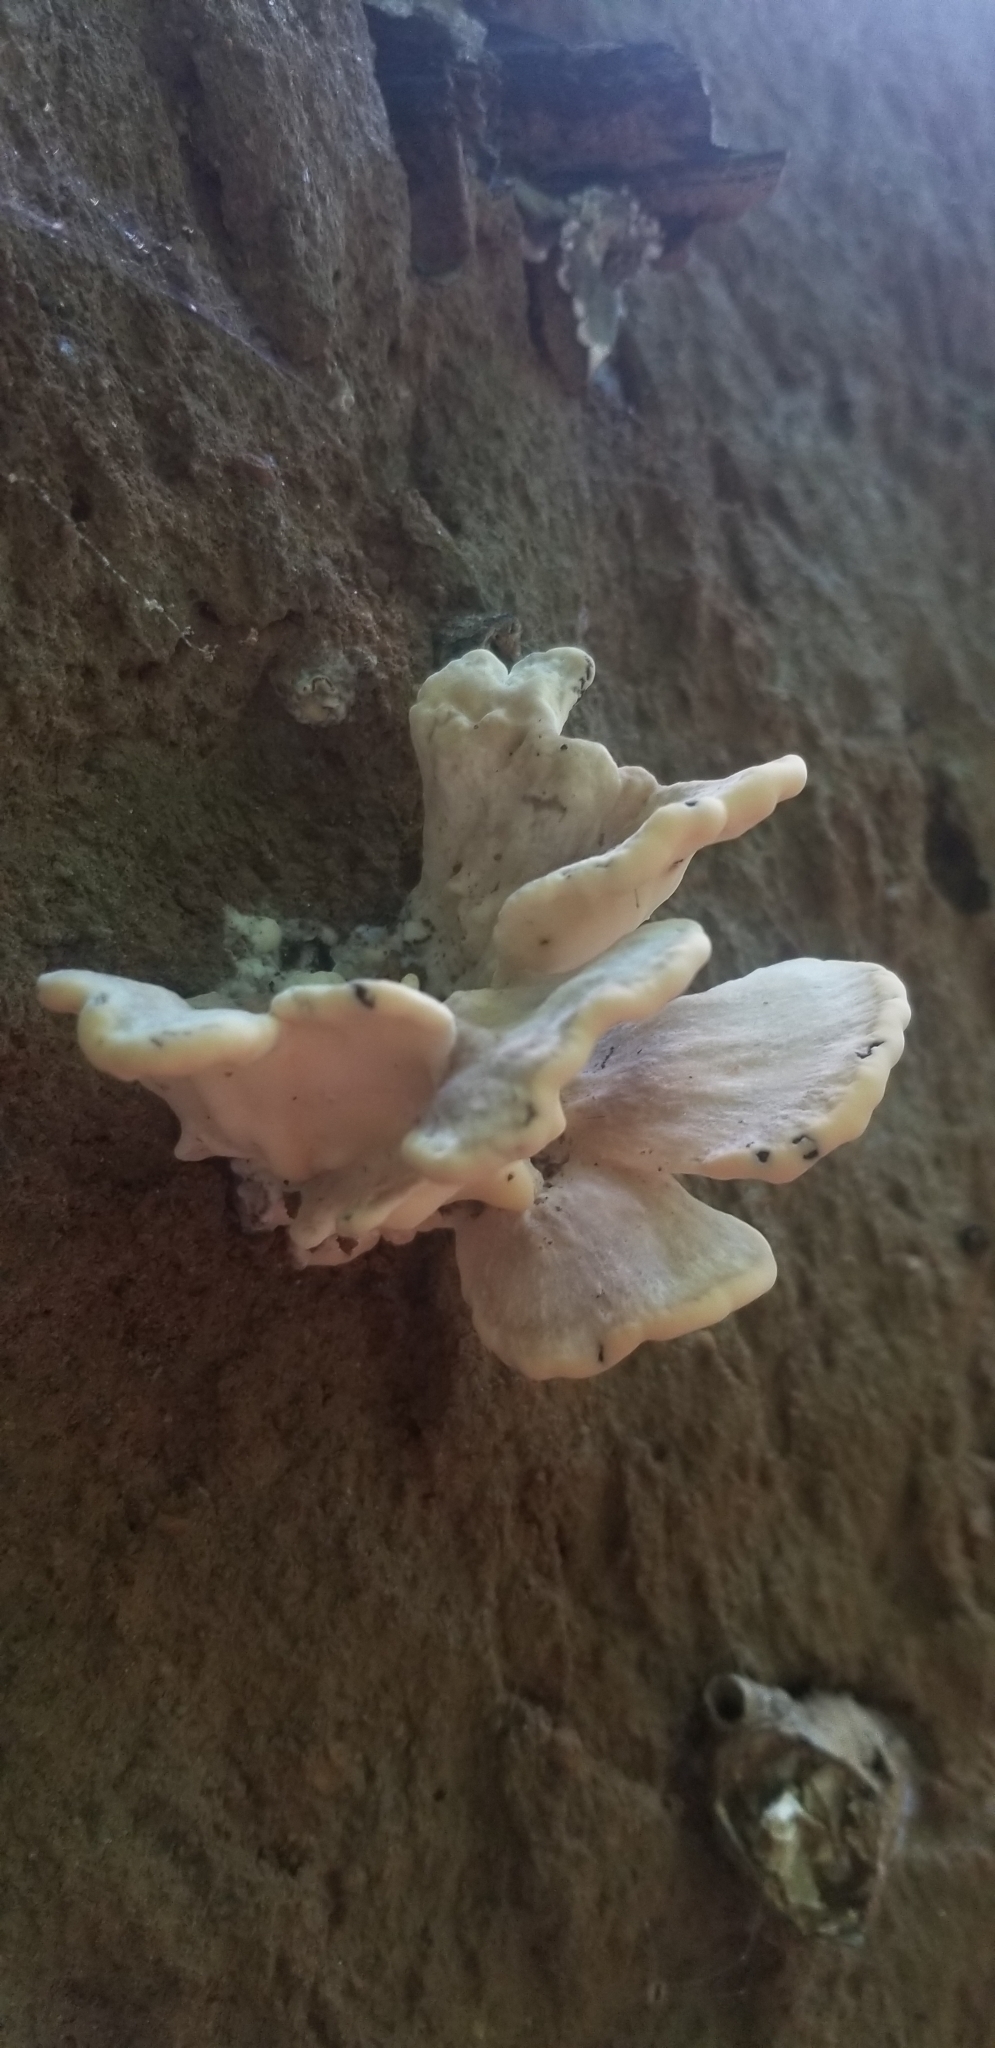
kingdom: Fungi
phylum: Basidiomycota
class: Agaricomycetes
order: Polyporales
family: Meripilaceae
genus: Meripilus
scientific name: Meripilus sumstinei
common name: Black-staining polypore
